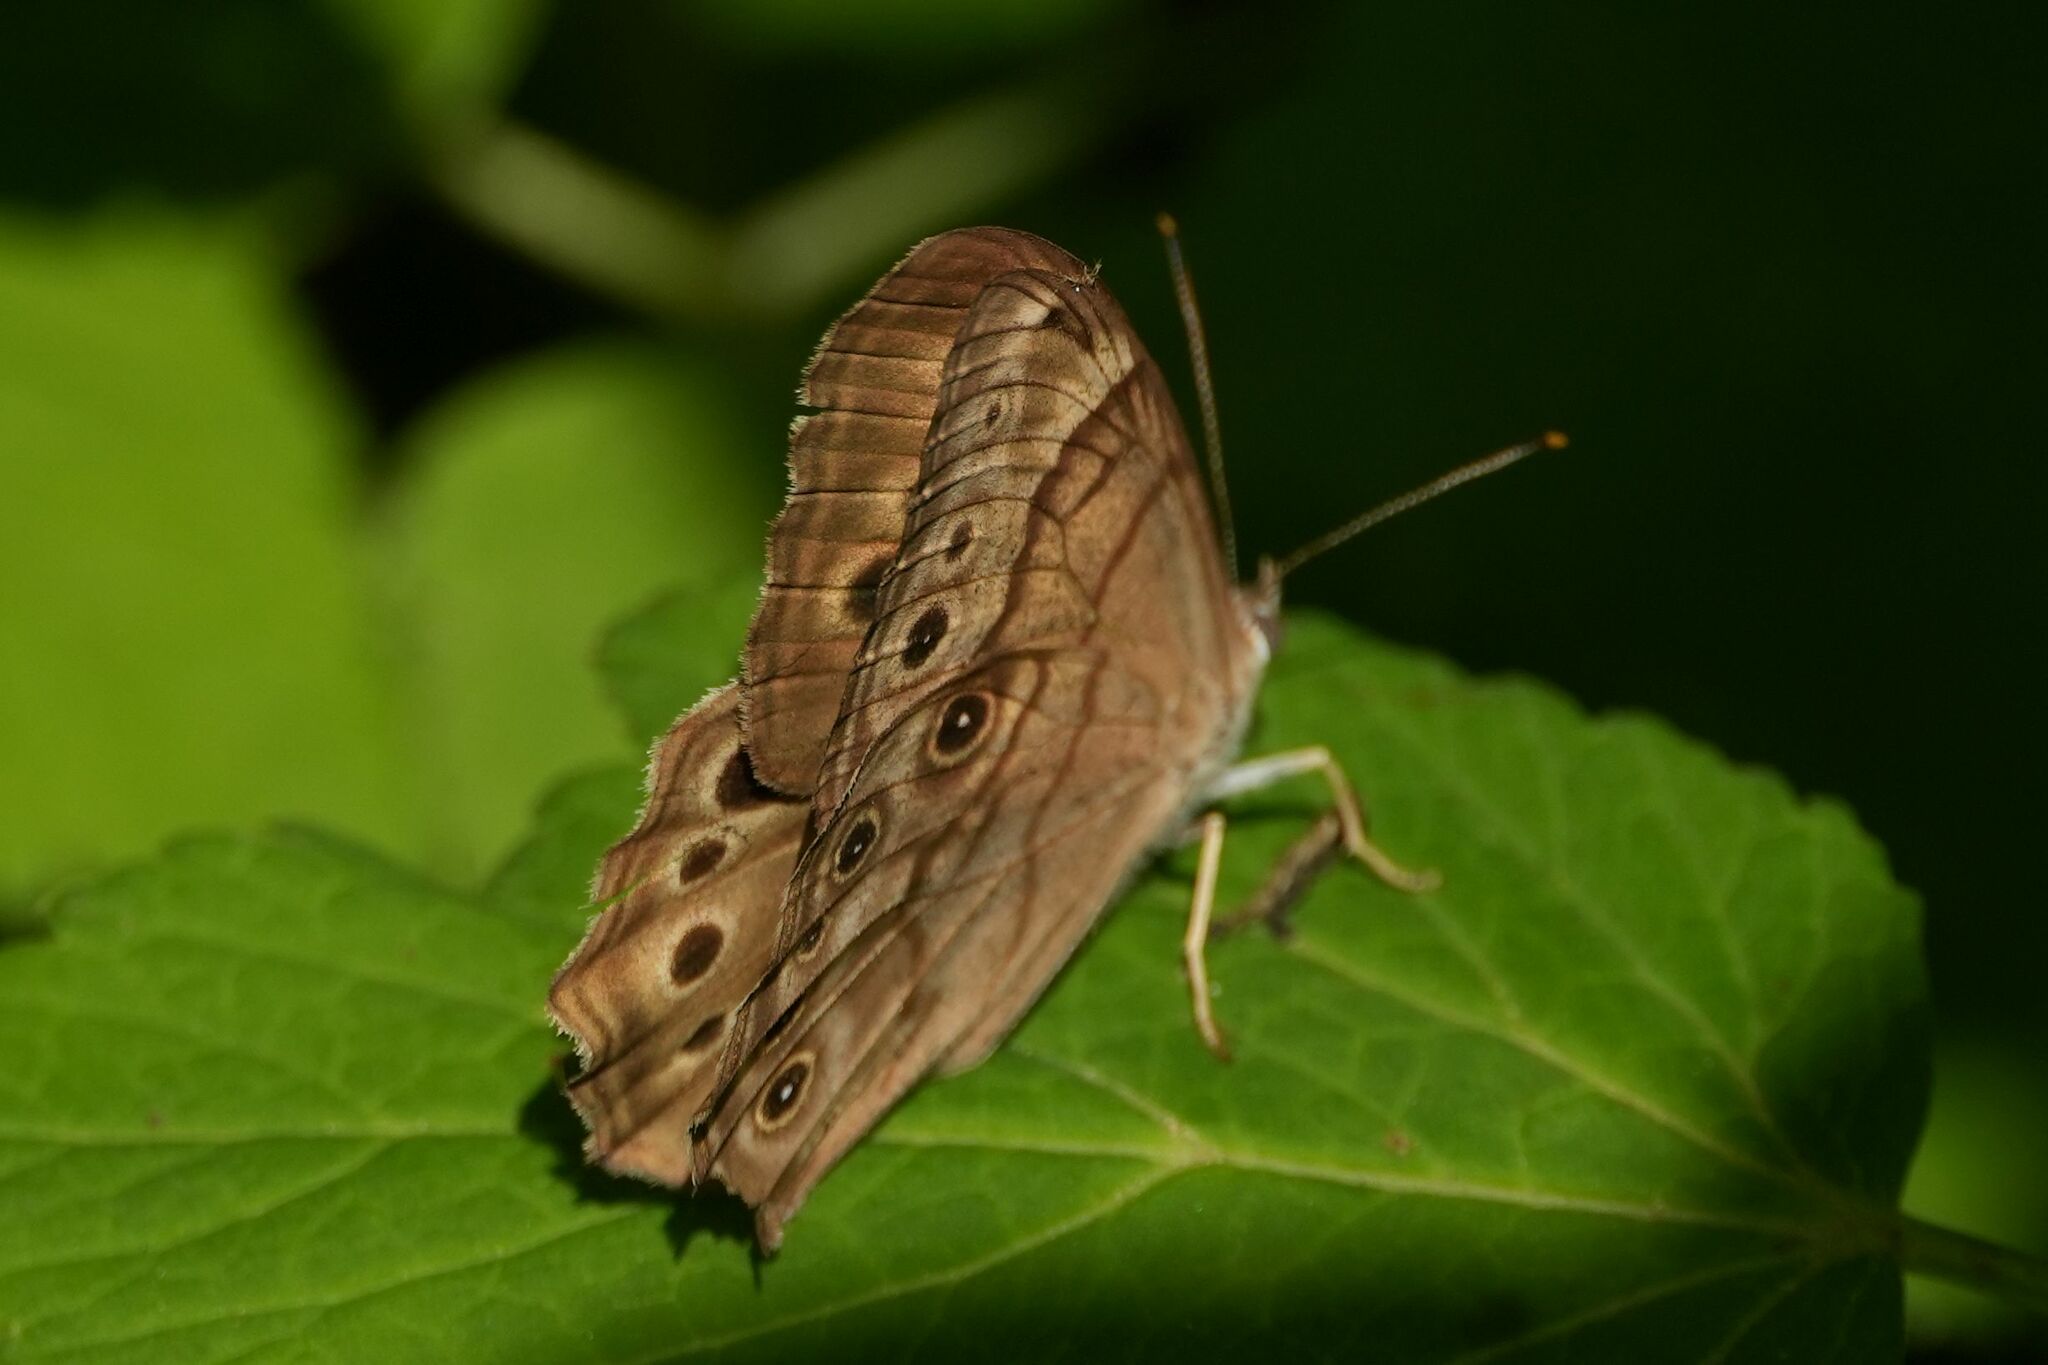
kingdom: Animalia
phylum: Arthropoda
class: Insecta
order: Lepidoptera
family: Nymphalidae
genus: Lethe
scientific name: Lethe anthedon
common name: Northern pearly-eye
